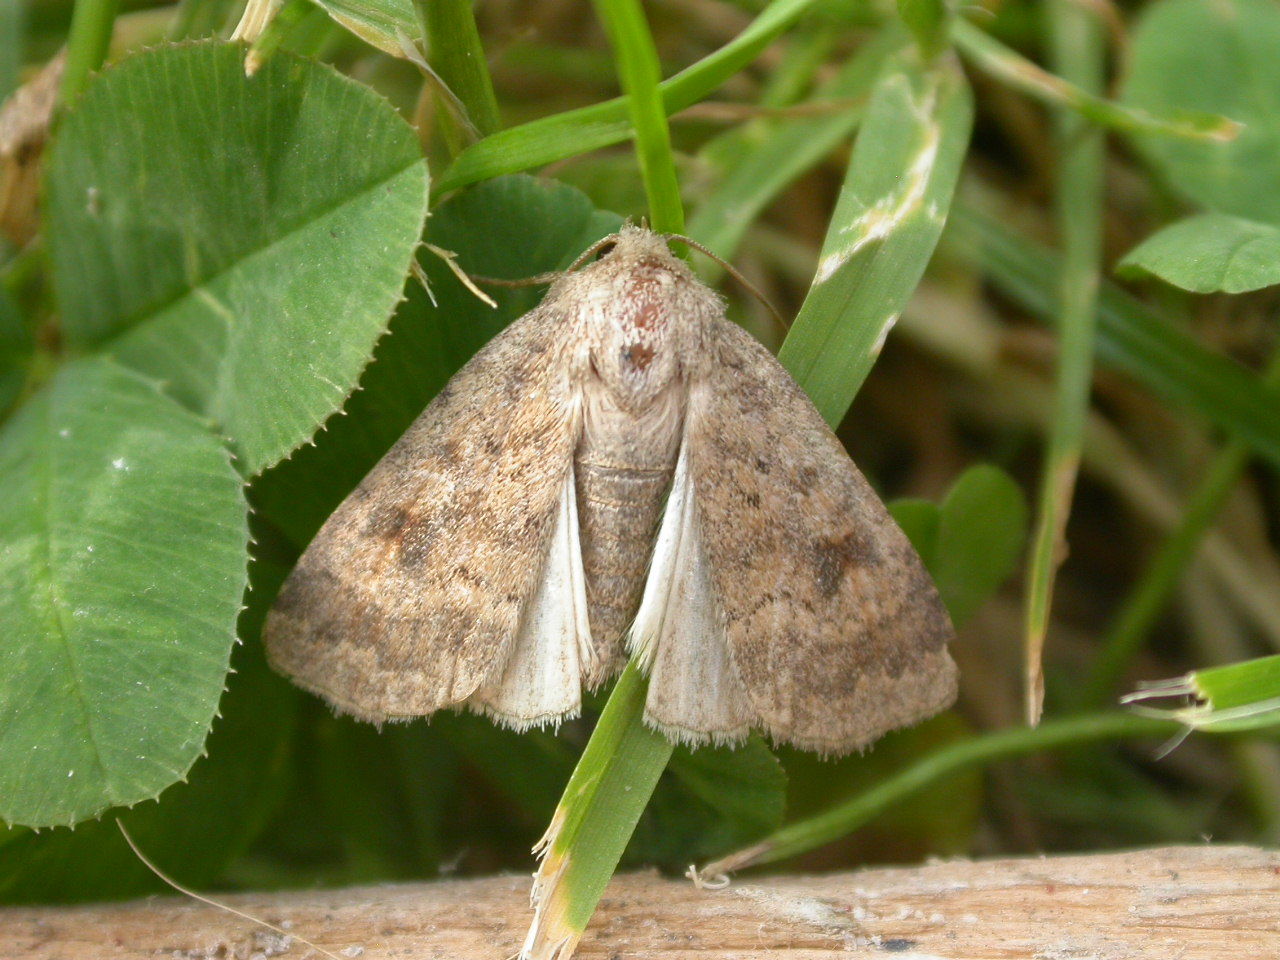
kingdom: Animalia
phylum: Arthropoda
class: Insecta
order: Lepidoptera
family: Noctuidae
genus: Caradrina
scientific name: Caradrina morpheus
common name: Mottled rustic
